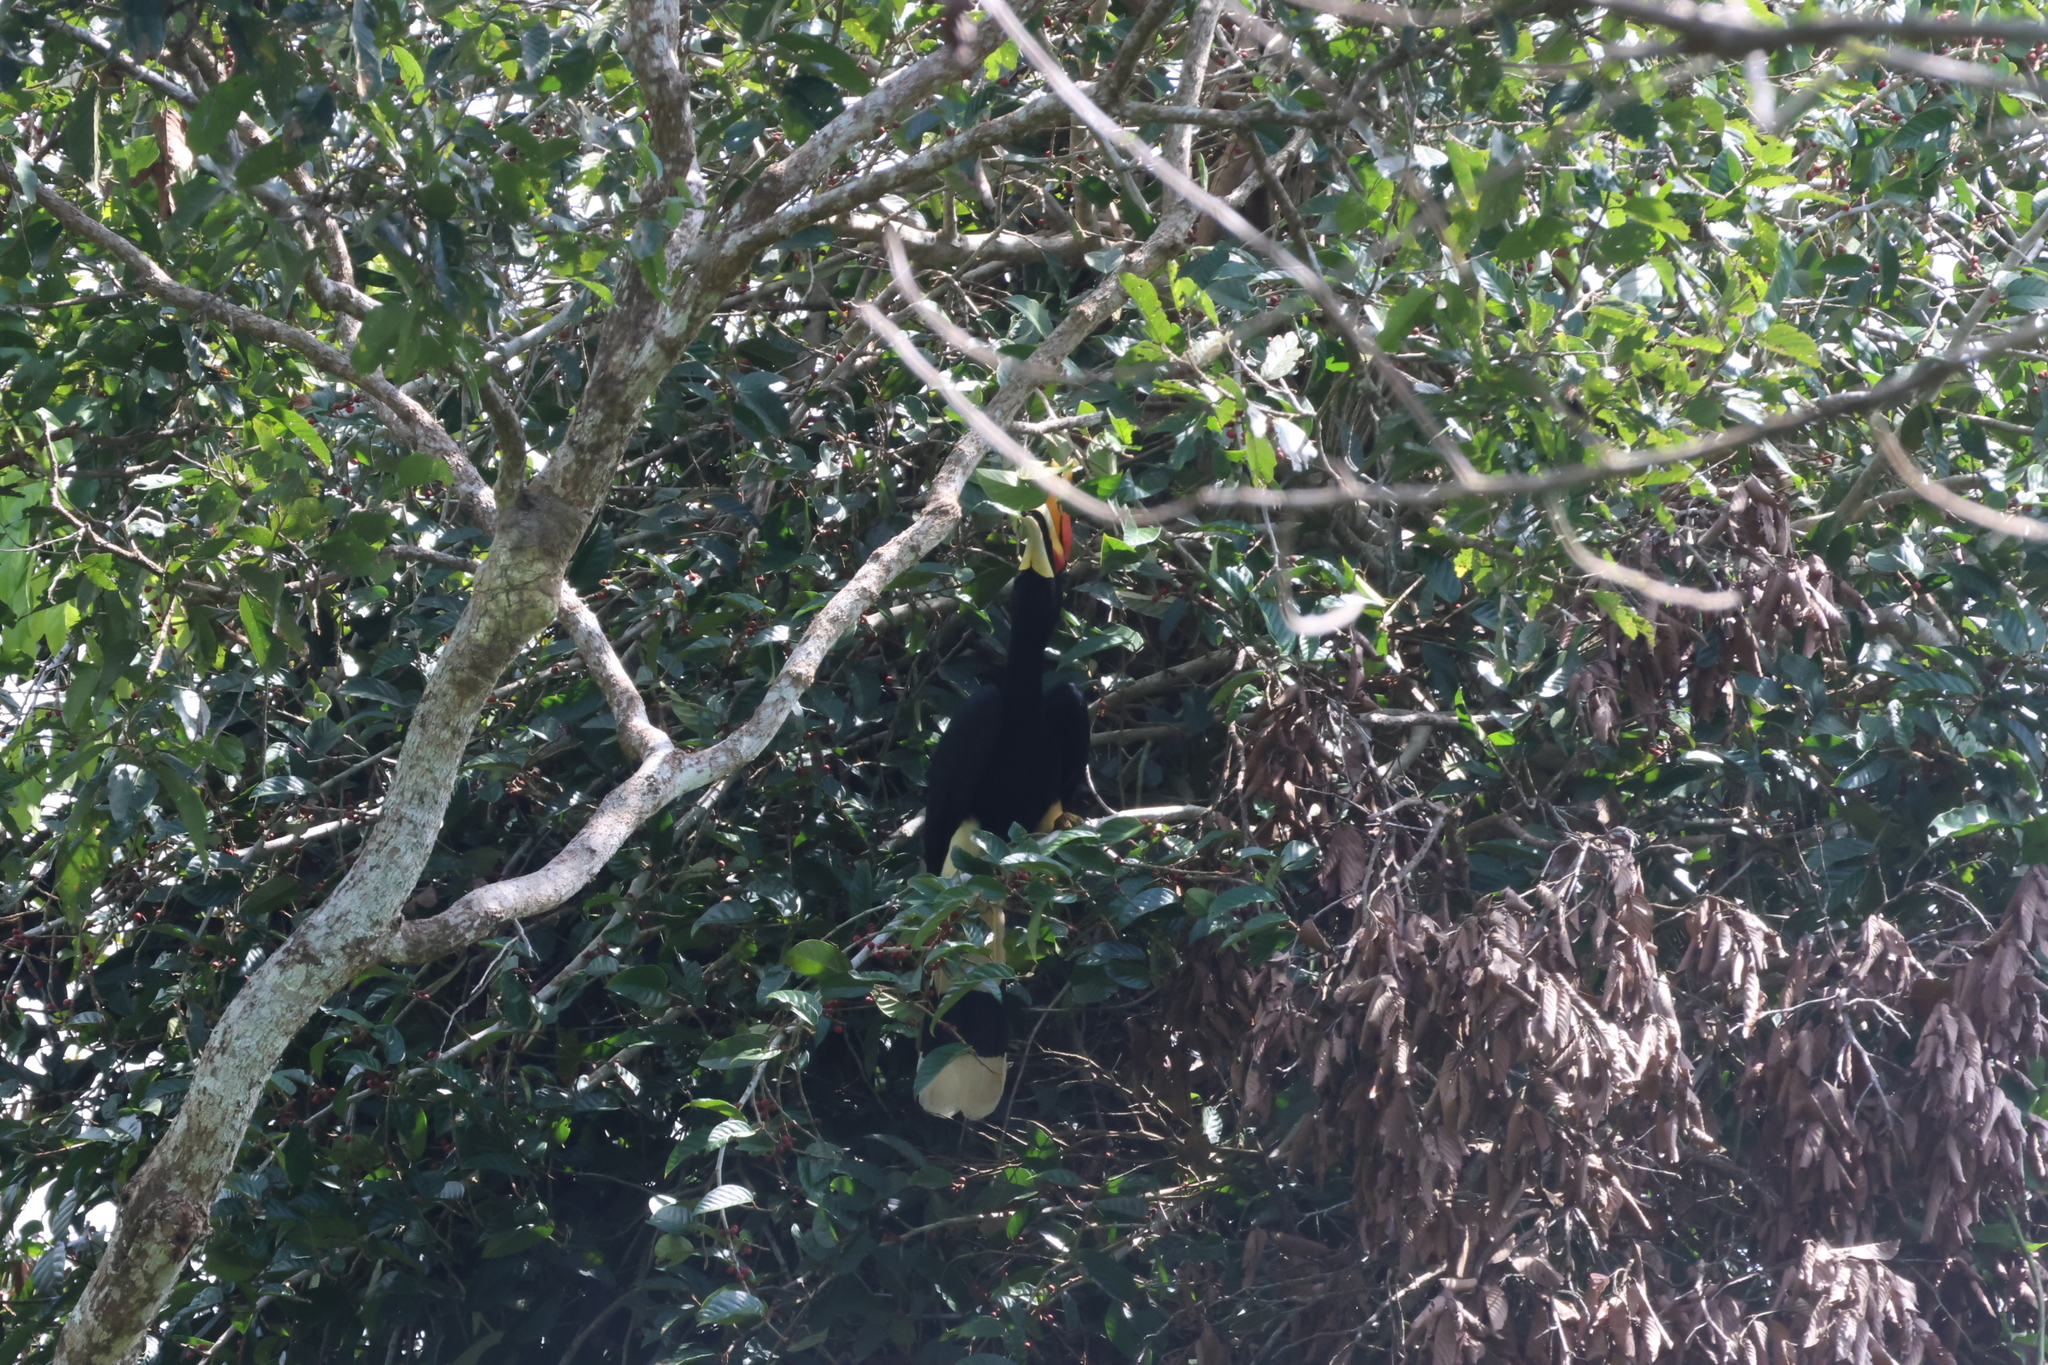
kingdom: Animalia
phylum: Chordata
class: Aves
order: Bucerotiformes
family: Bucerotidae
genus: Buceros
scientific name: Buceros rhinoceros
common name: Rhinoceros hornbill
